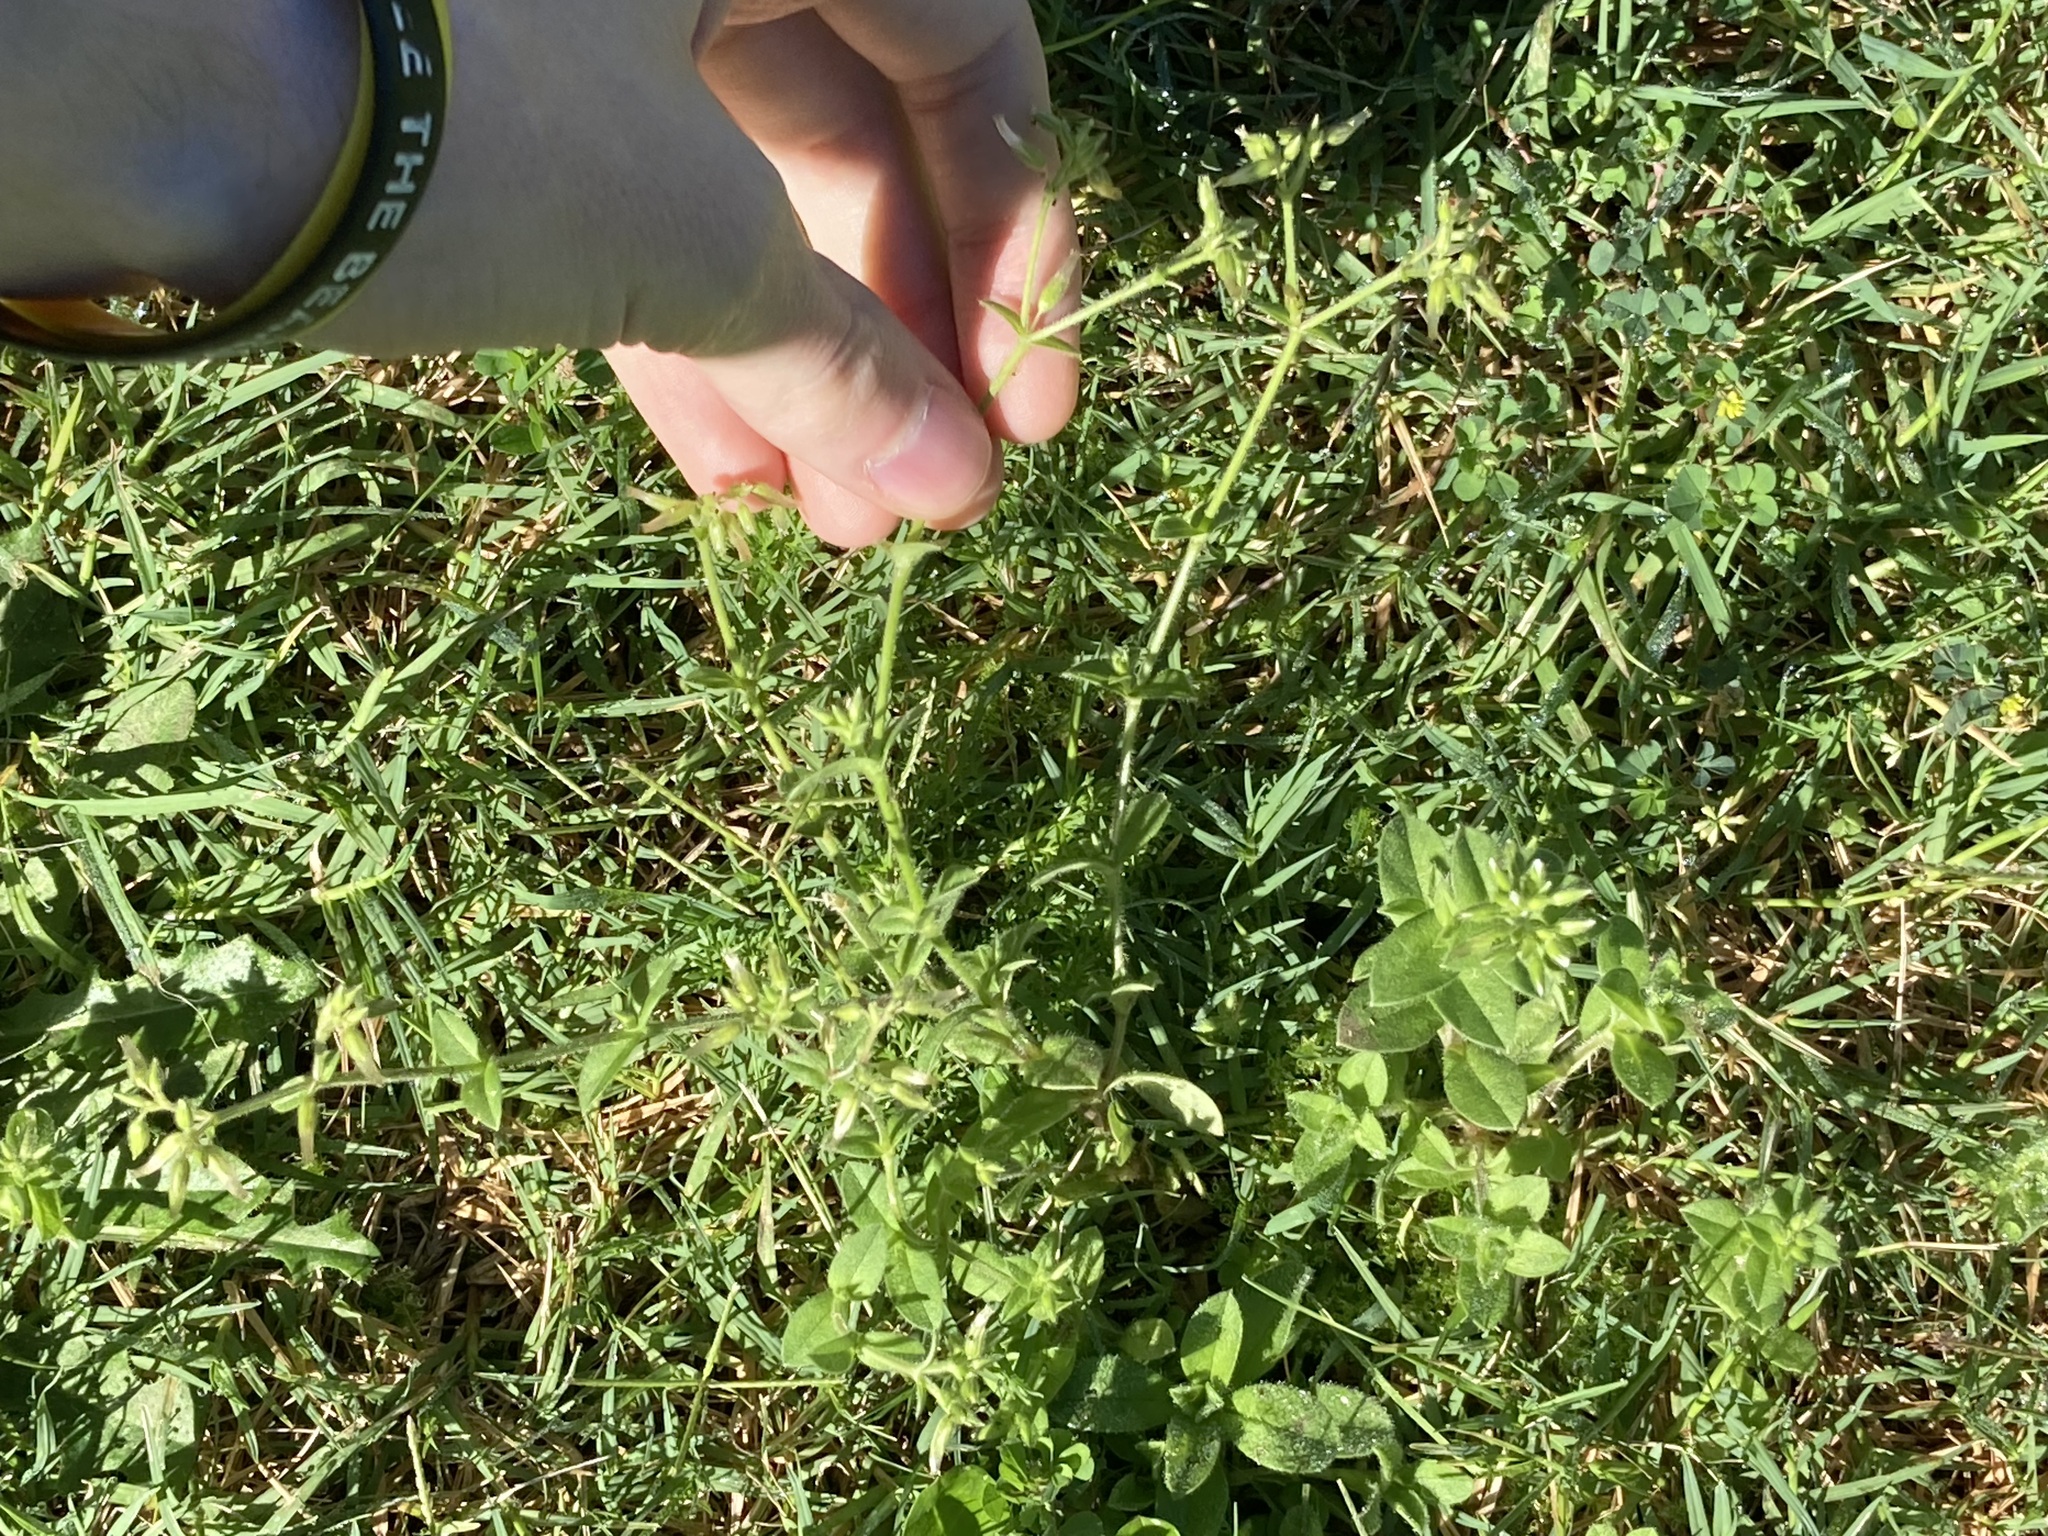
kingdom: Plantae
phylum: Tracheophyta
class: Magnoliopsida
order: Caryophyllales
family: Caryophyllaceae
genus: Cerastium
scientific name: Cerastium glomeratum
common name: Sticky chickweed
